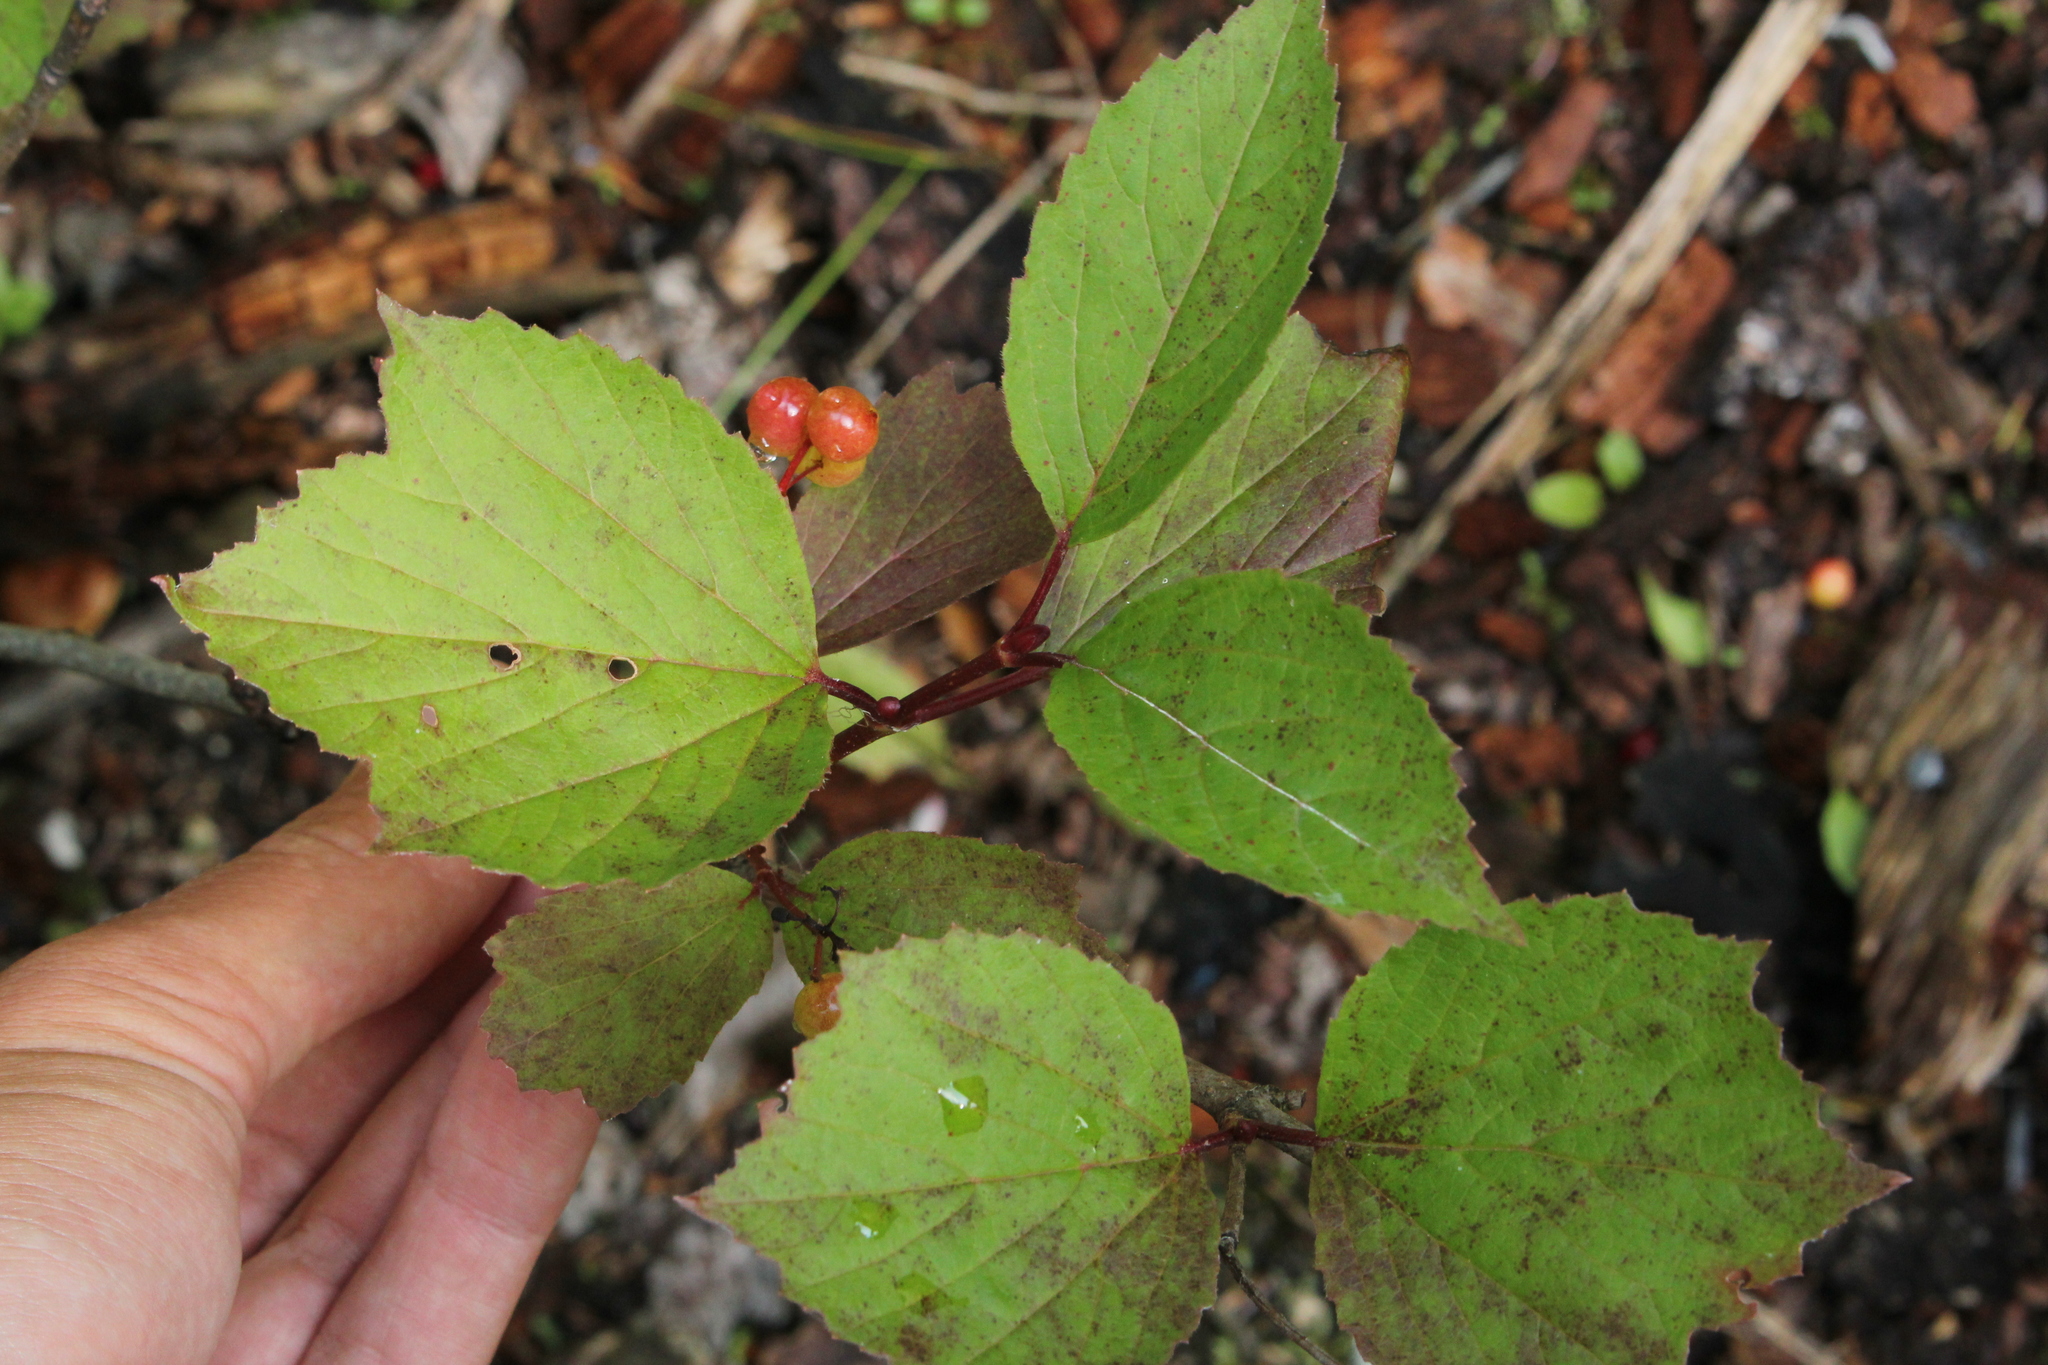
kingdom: Plantae
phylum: Tracheophyta
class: Magnoliopsida
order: Dipsacales
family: Viburnaceae
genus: Viburnum
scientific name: Viburnum edule
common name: Mooseberry
